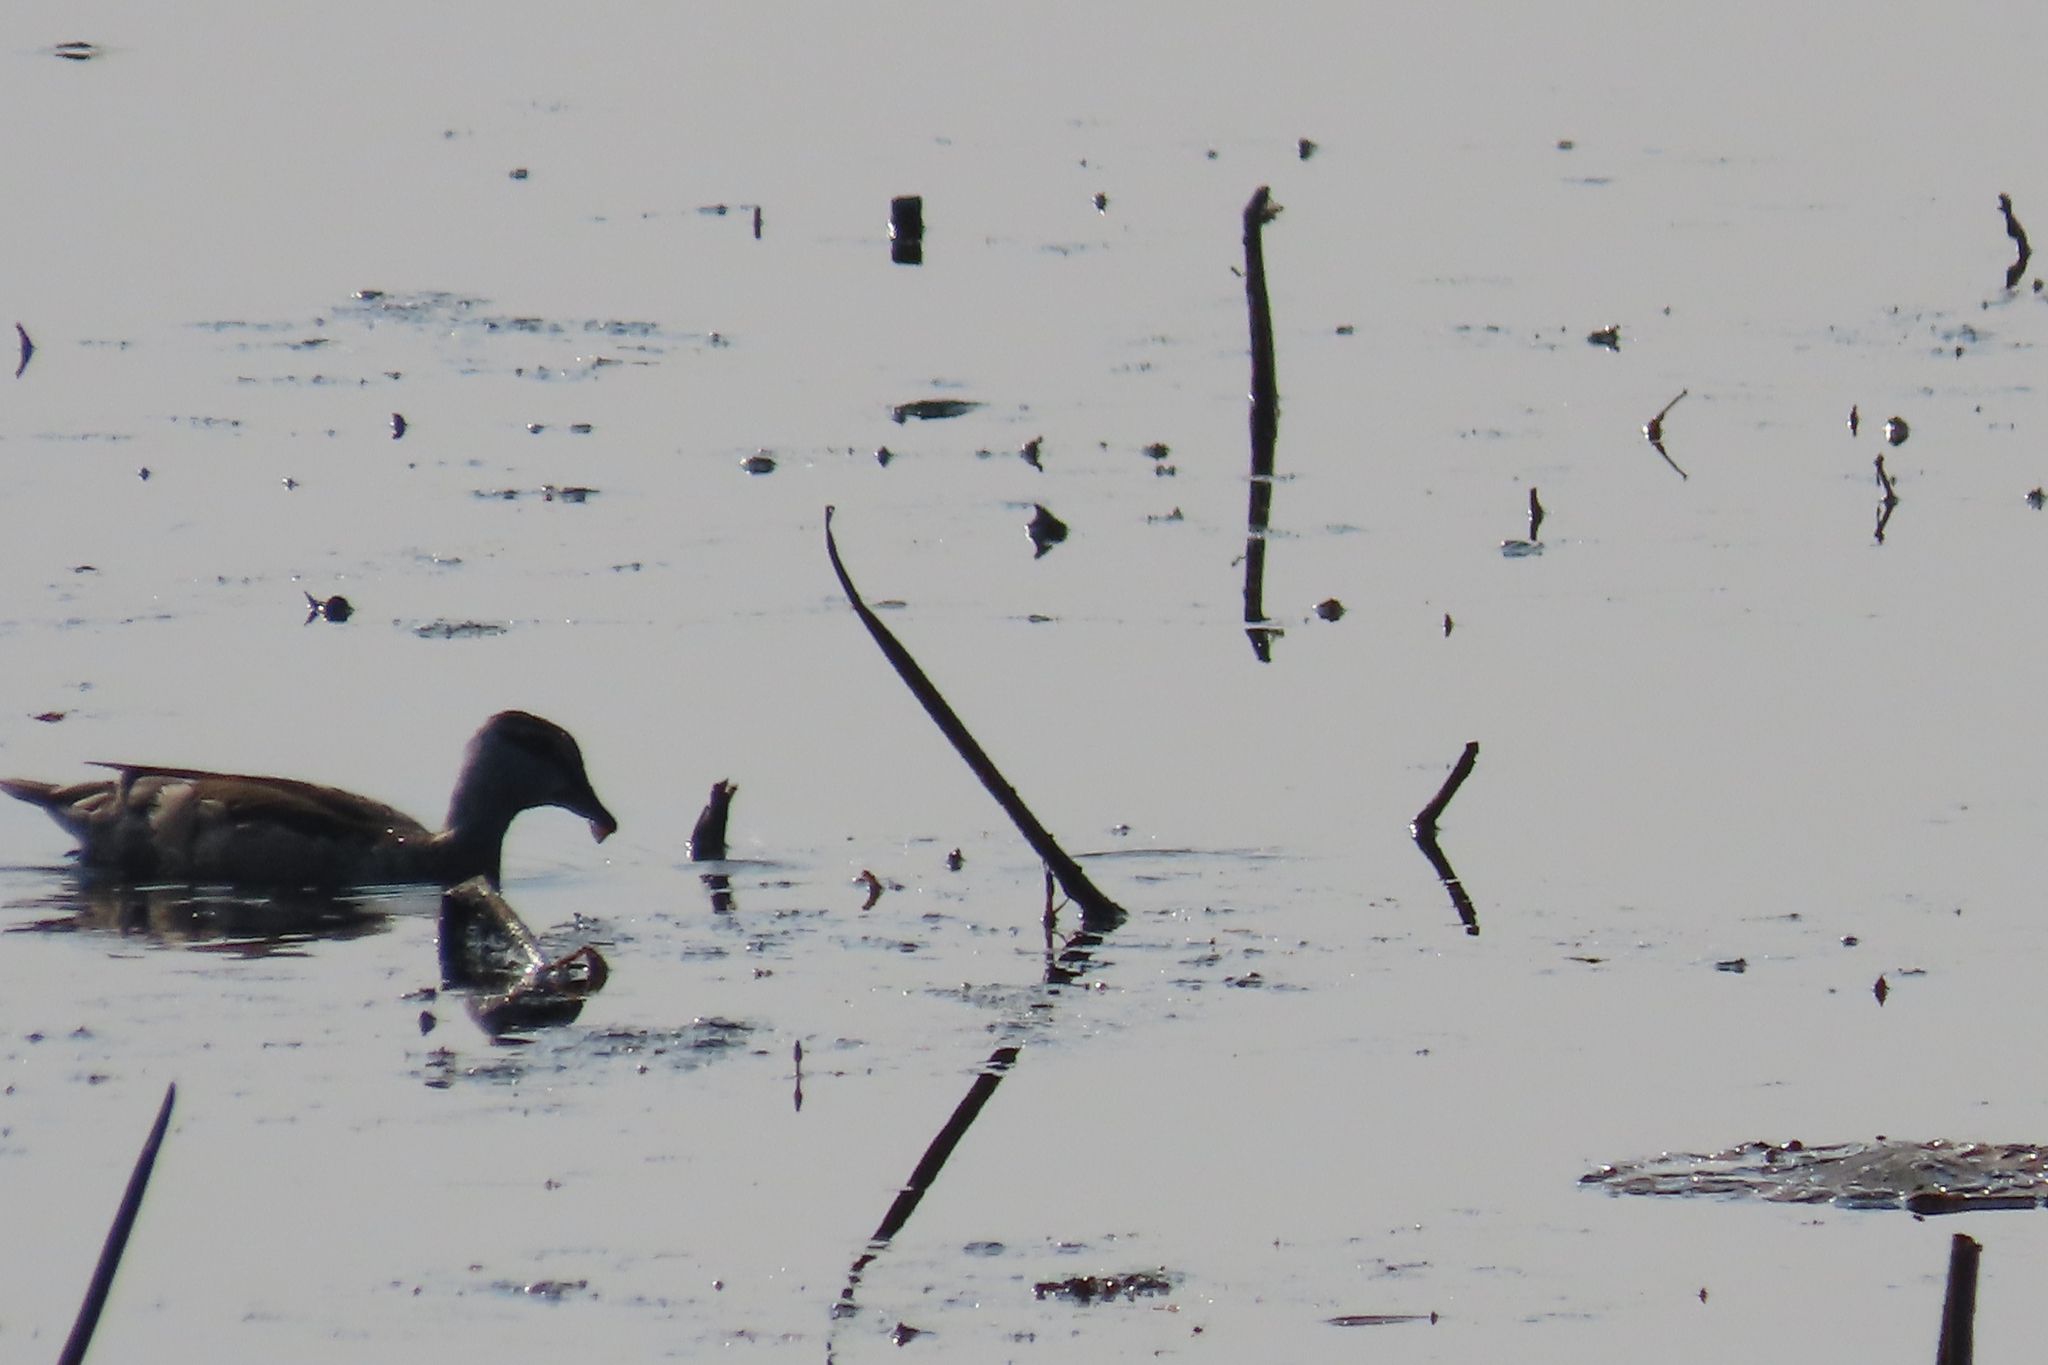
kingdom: Animalia
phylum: Chordata
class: Aves
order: Anseriformes
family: Anatidae
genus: Nettapus
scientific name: Nettapus coromandelianus
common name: Cotton pygmy-goose
